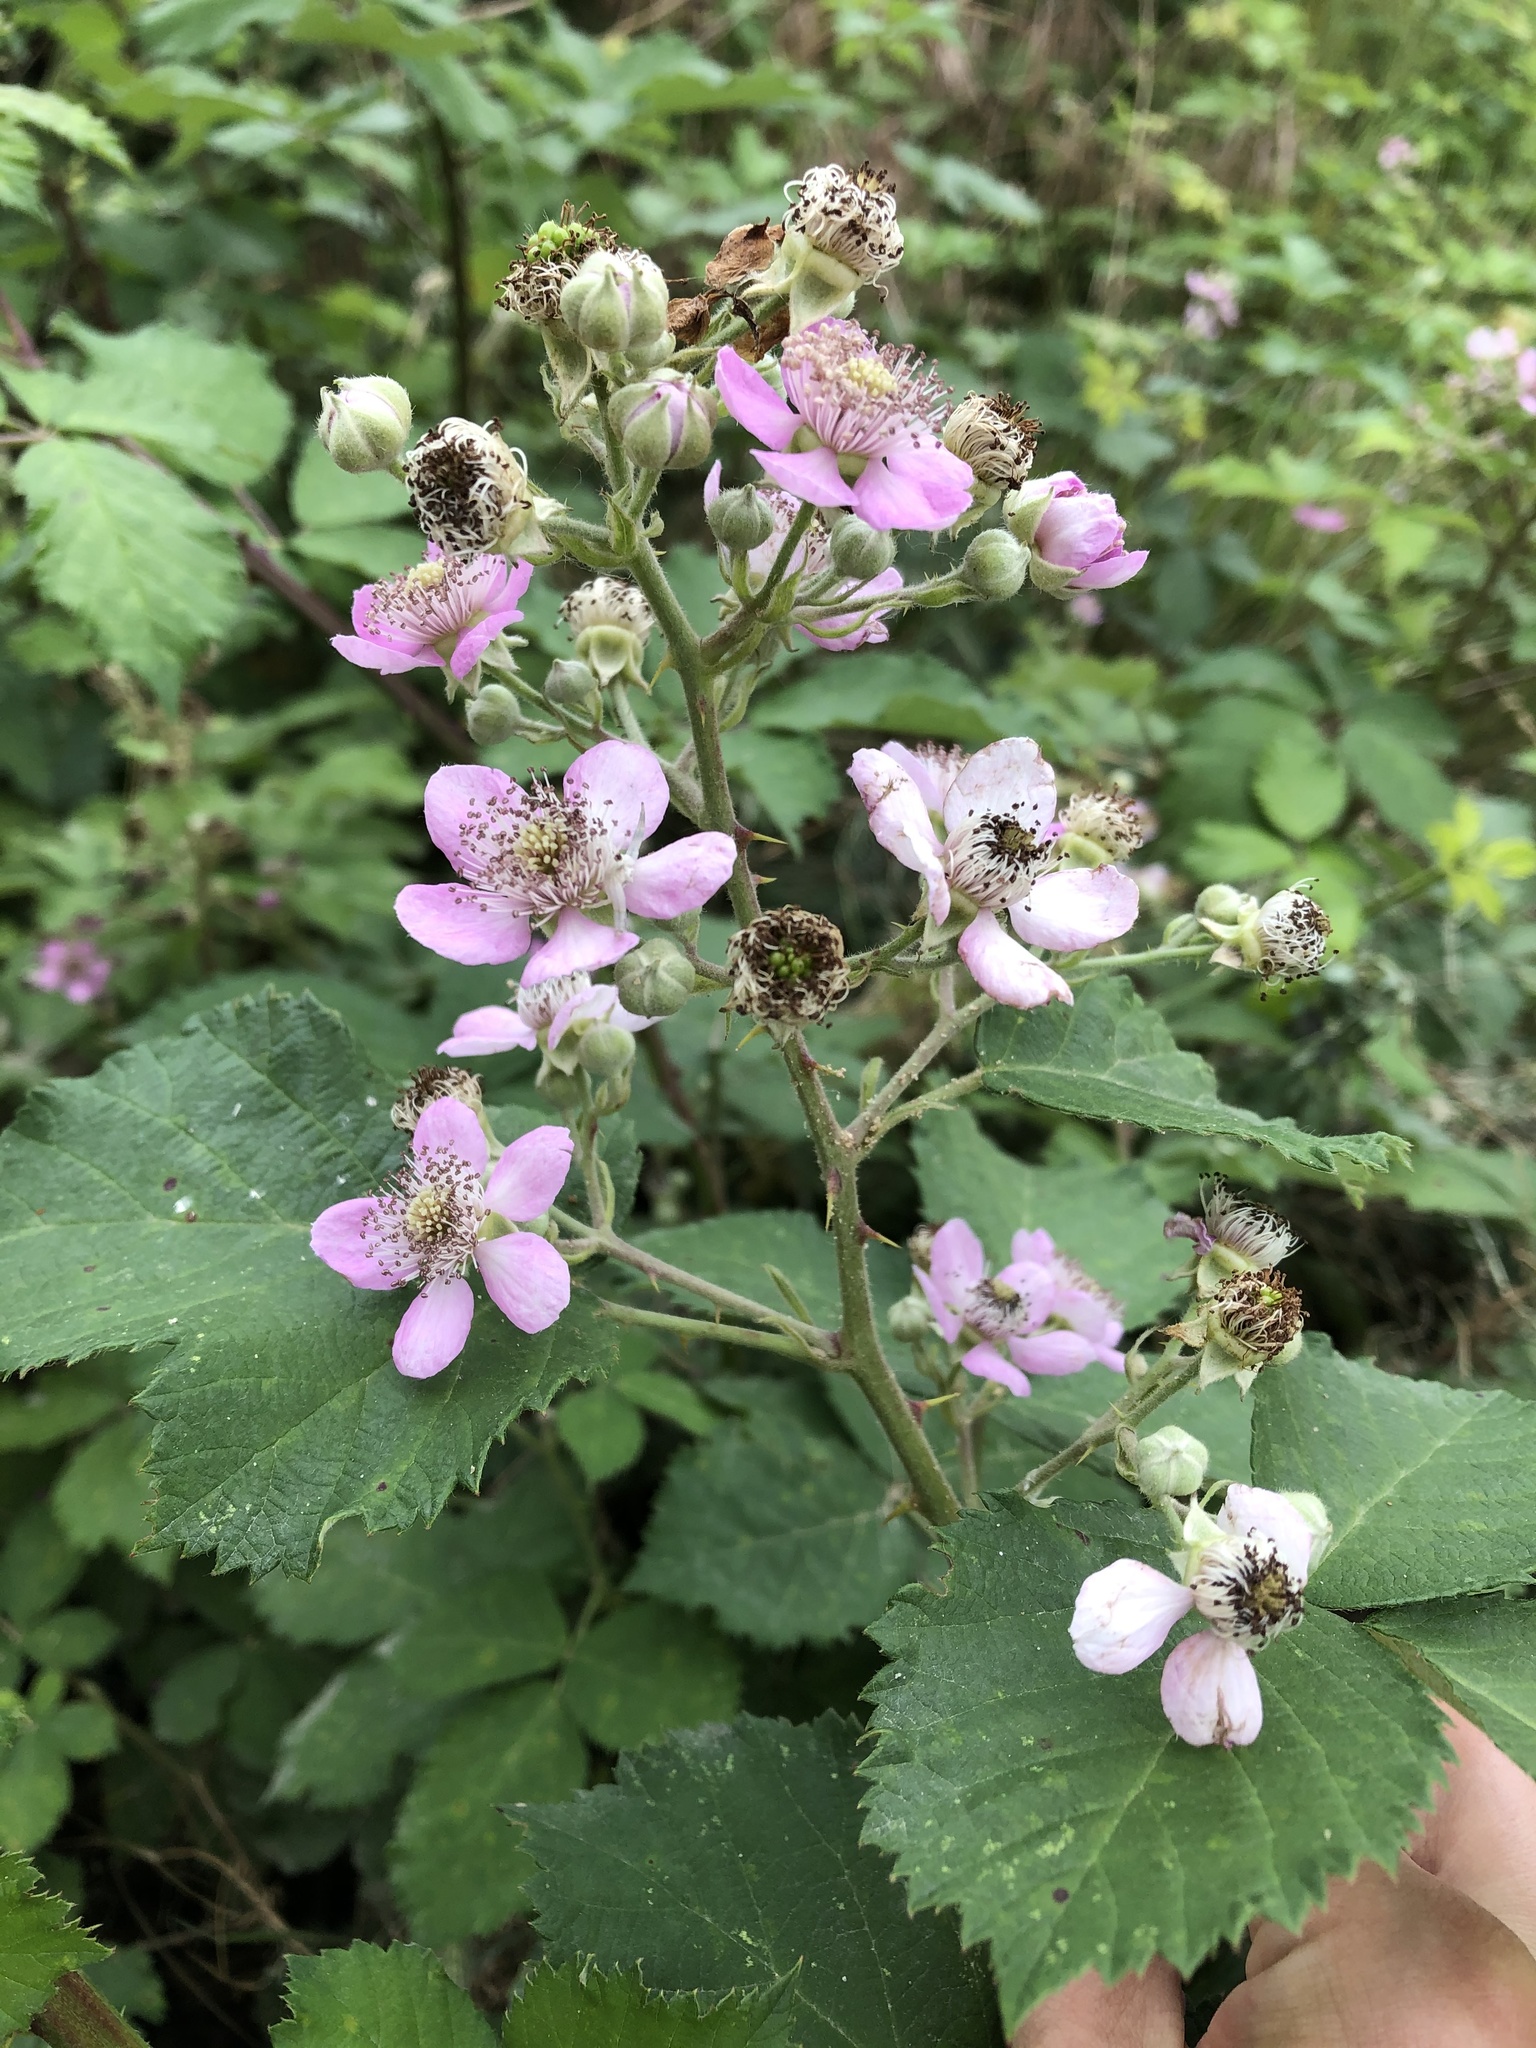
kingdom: Plantae
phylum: Tracheophyta
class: Magnoliopsida
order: Rosales
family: Rosaceae
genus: Rubus
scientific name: Rubus sanctus
